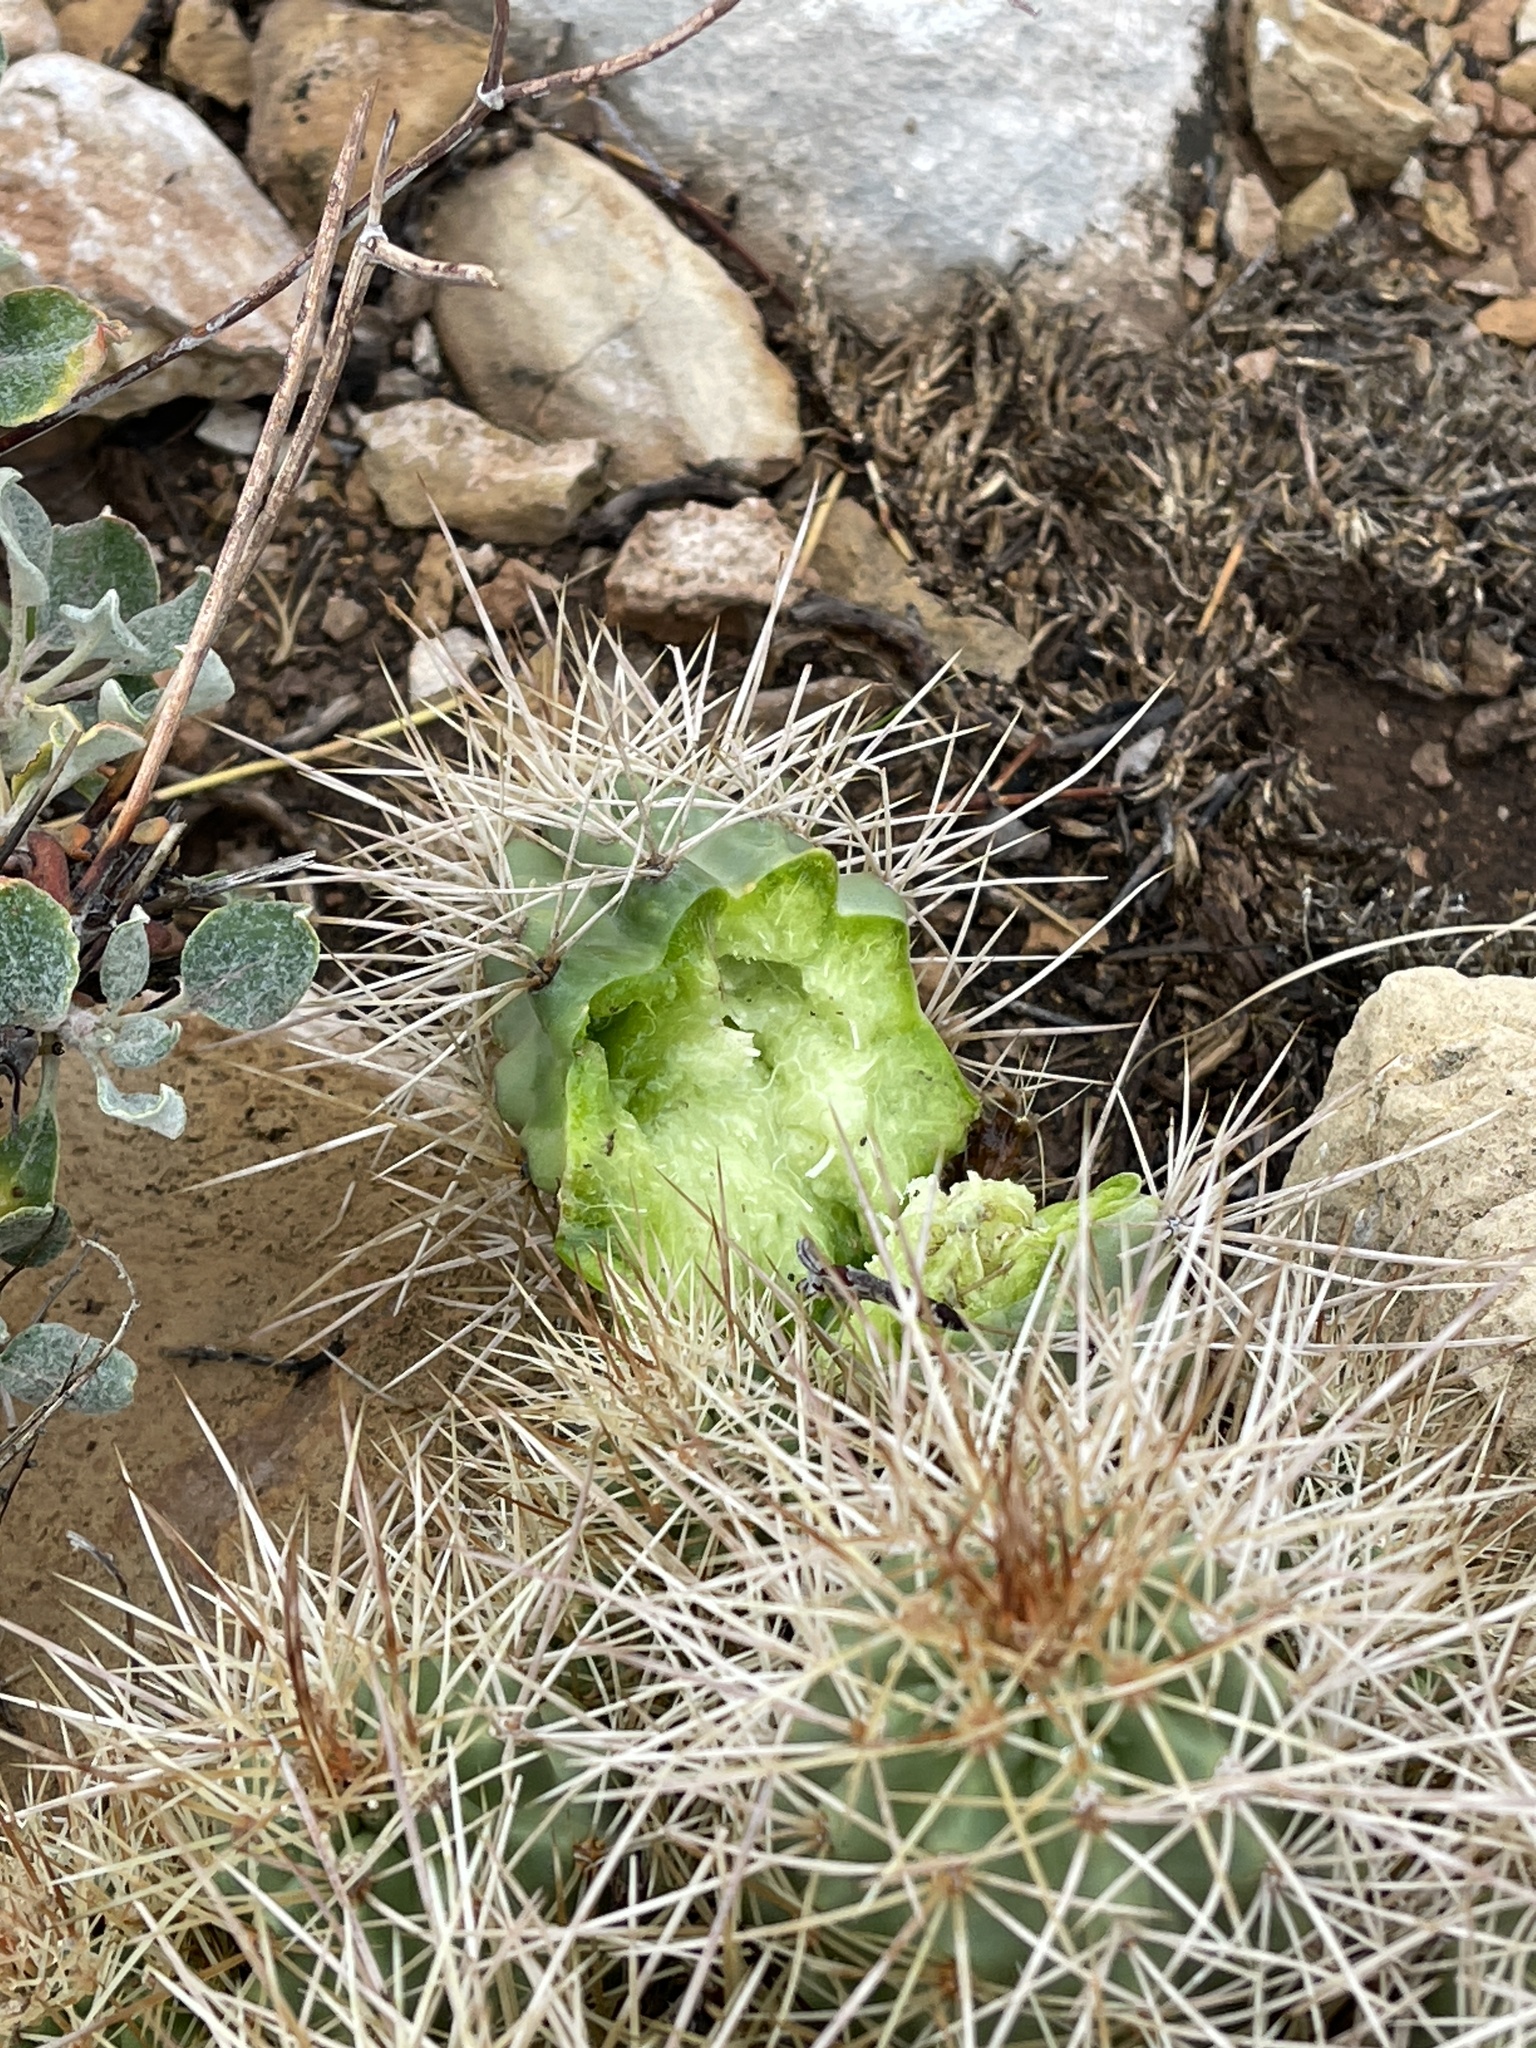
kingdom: Plantae
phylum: Tracheophyta
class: Magnoliopsida
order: Caryophyllales
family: Cactaceae
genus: Echinocereus
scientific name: Echinocereus triglochidiatus
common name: Claretcup hedgehog
